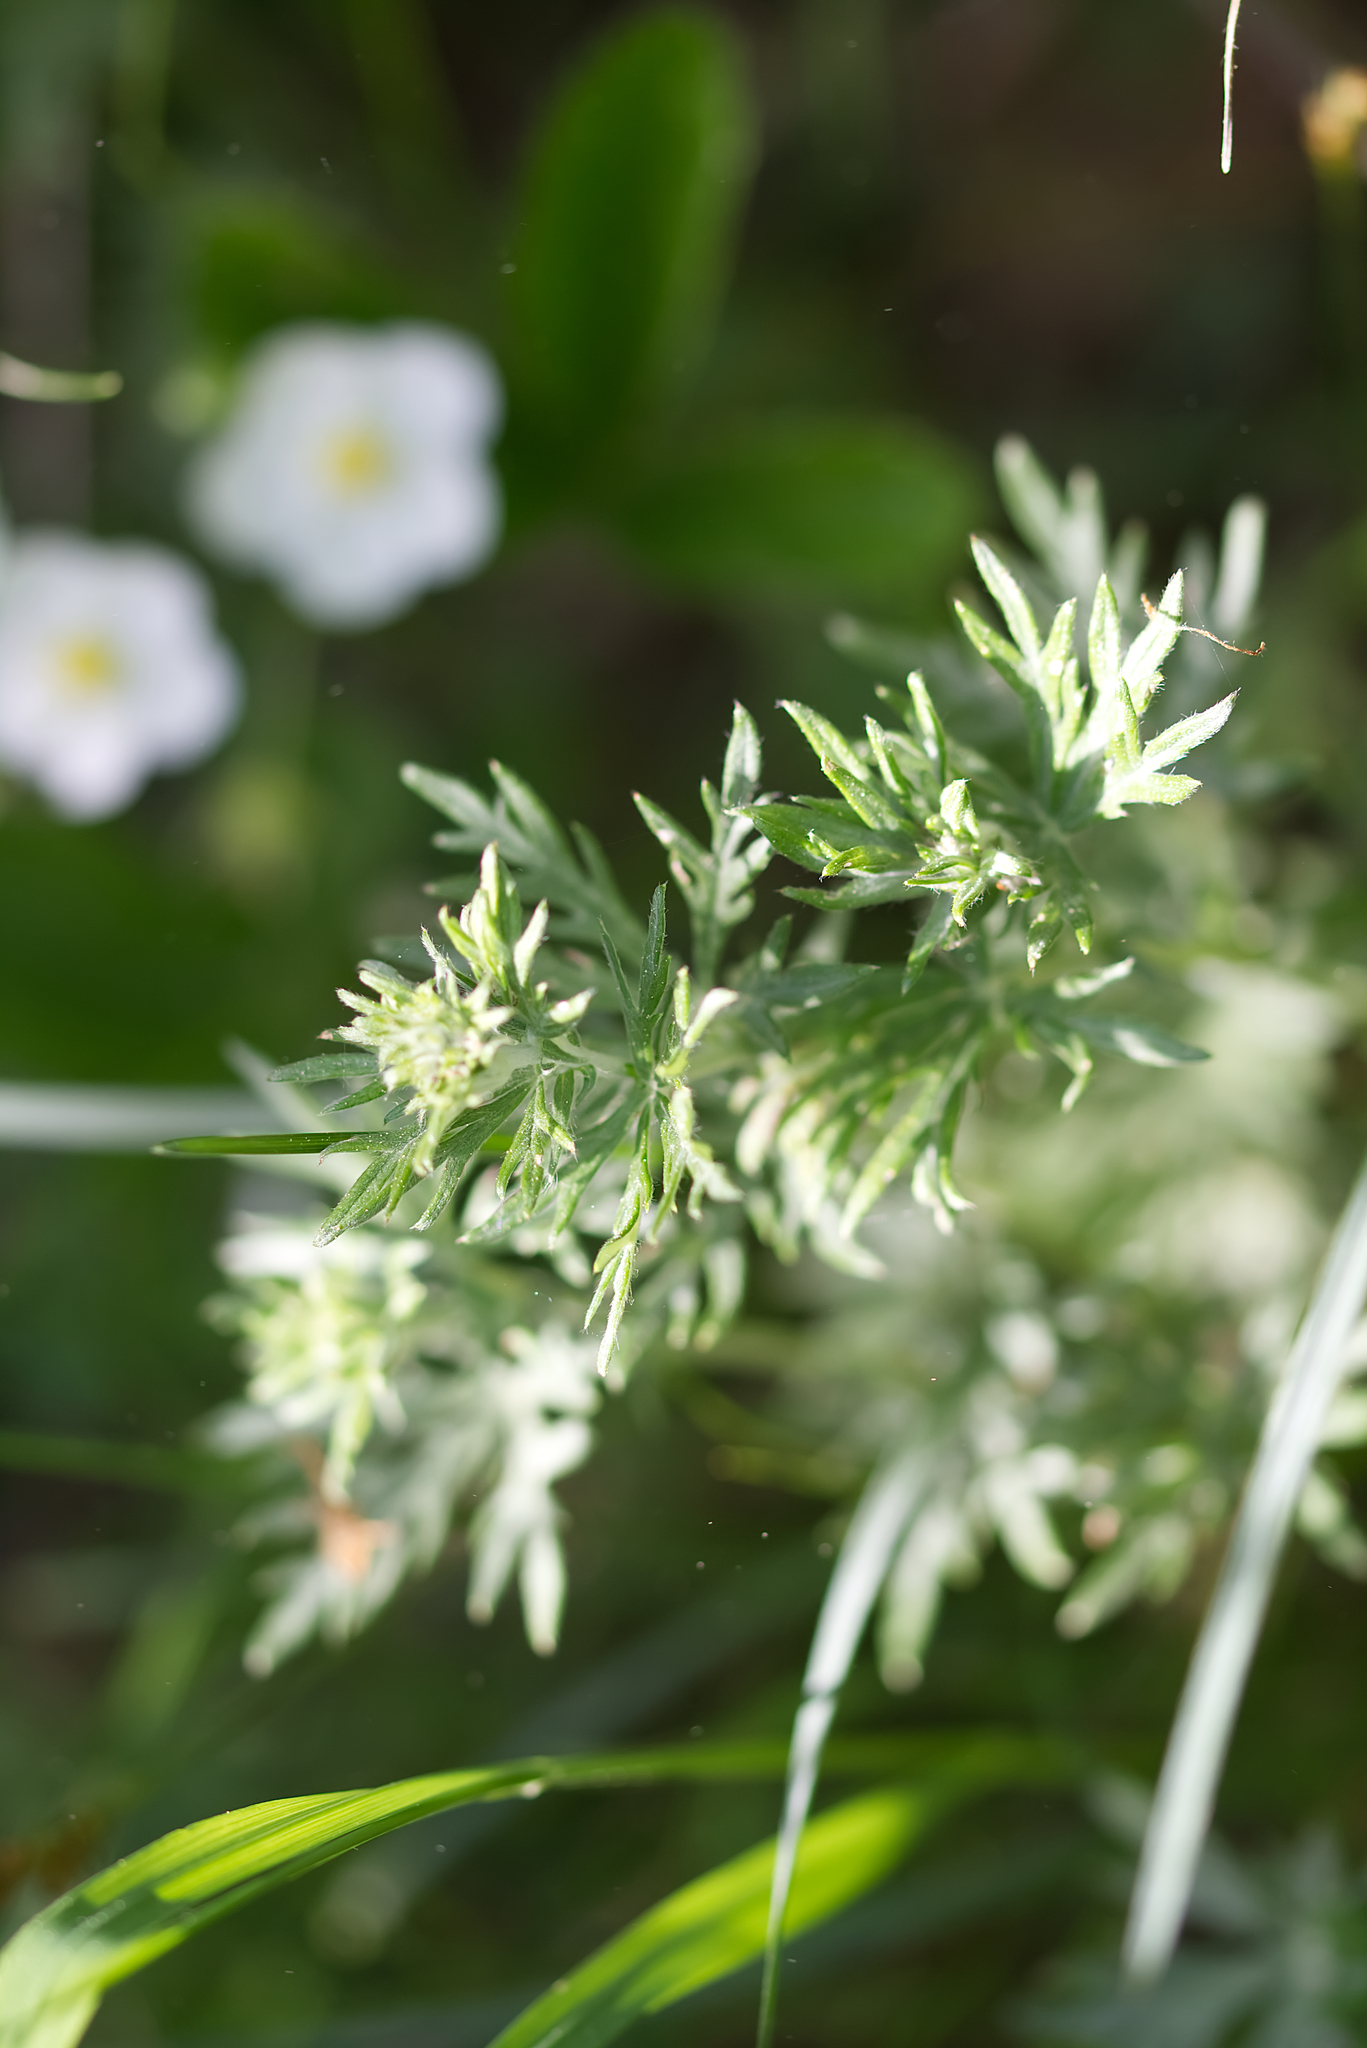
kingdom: Plantae
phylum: Tracheophyta
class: Magnoliopsida
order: Rosales
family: Rosaceae
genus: Potentilla
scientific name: Potentilla argentea
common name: Hoary cinquefoil
